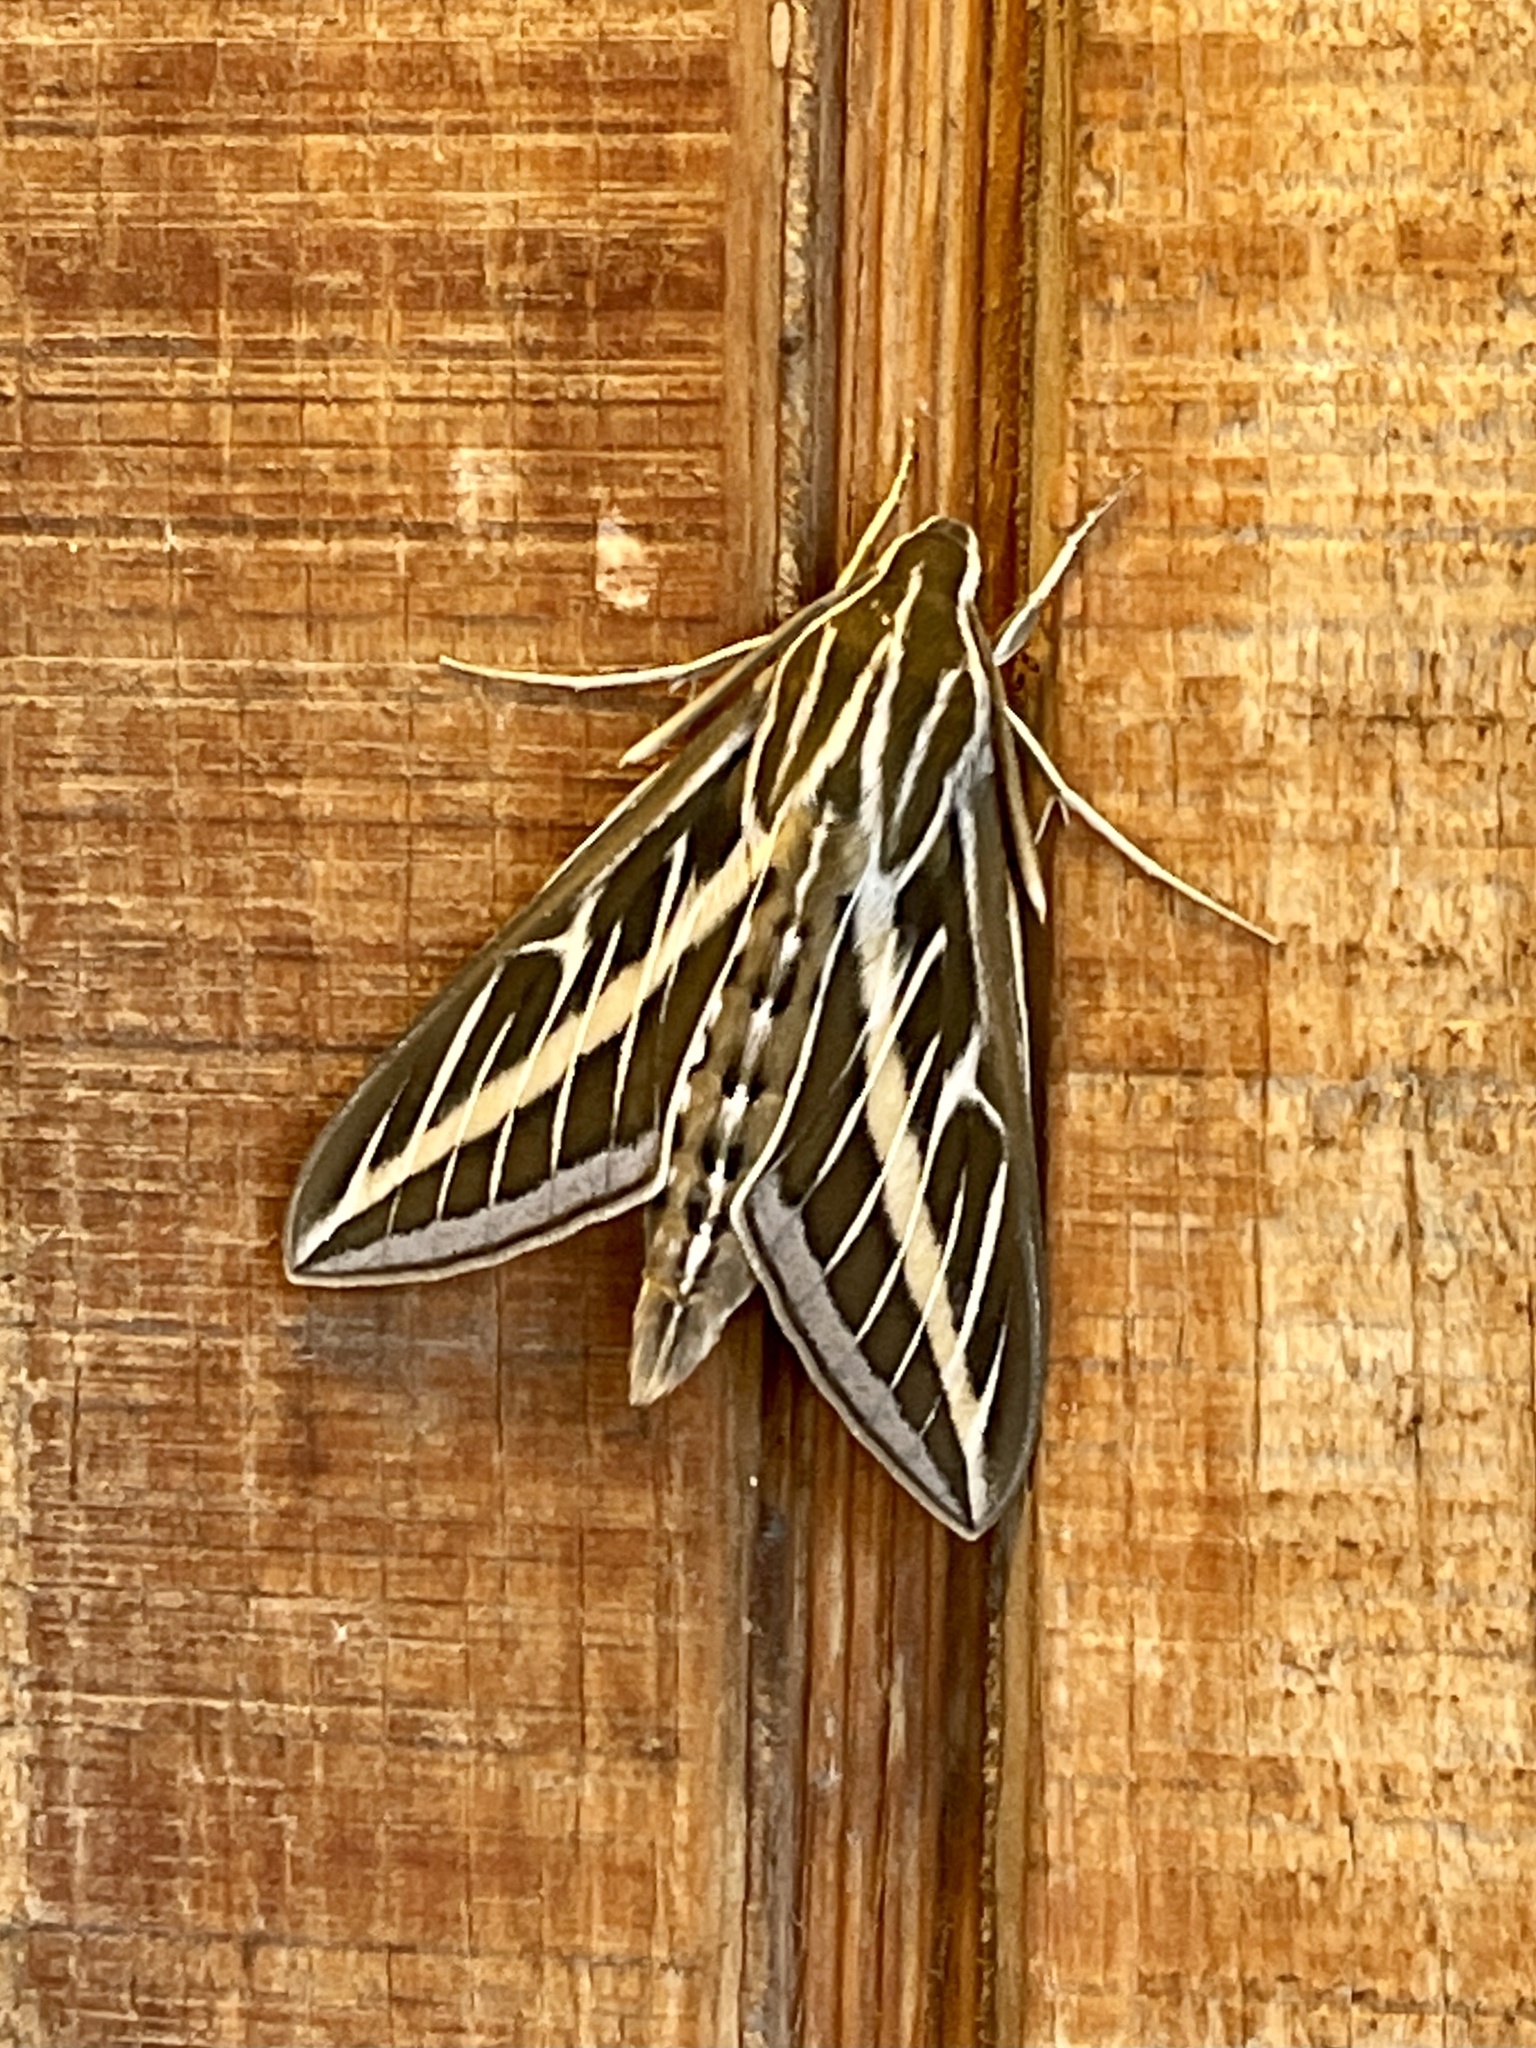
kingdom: Animalia
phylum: Arthropoda
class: Insecta
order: Lepidoptera
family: Sphingidae
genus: Hyles
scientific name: Hyles lineata
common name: White-lined sphinx
